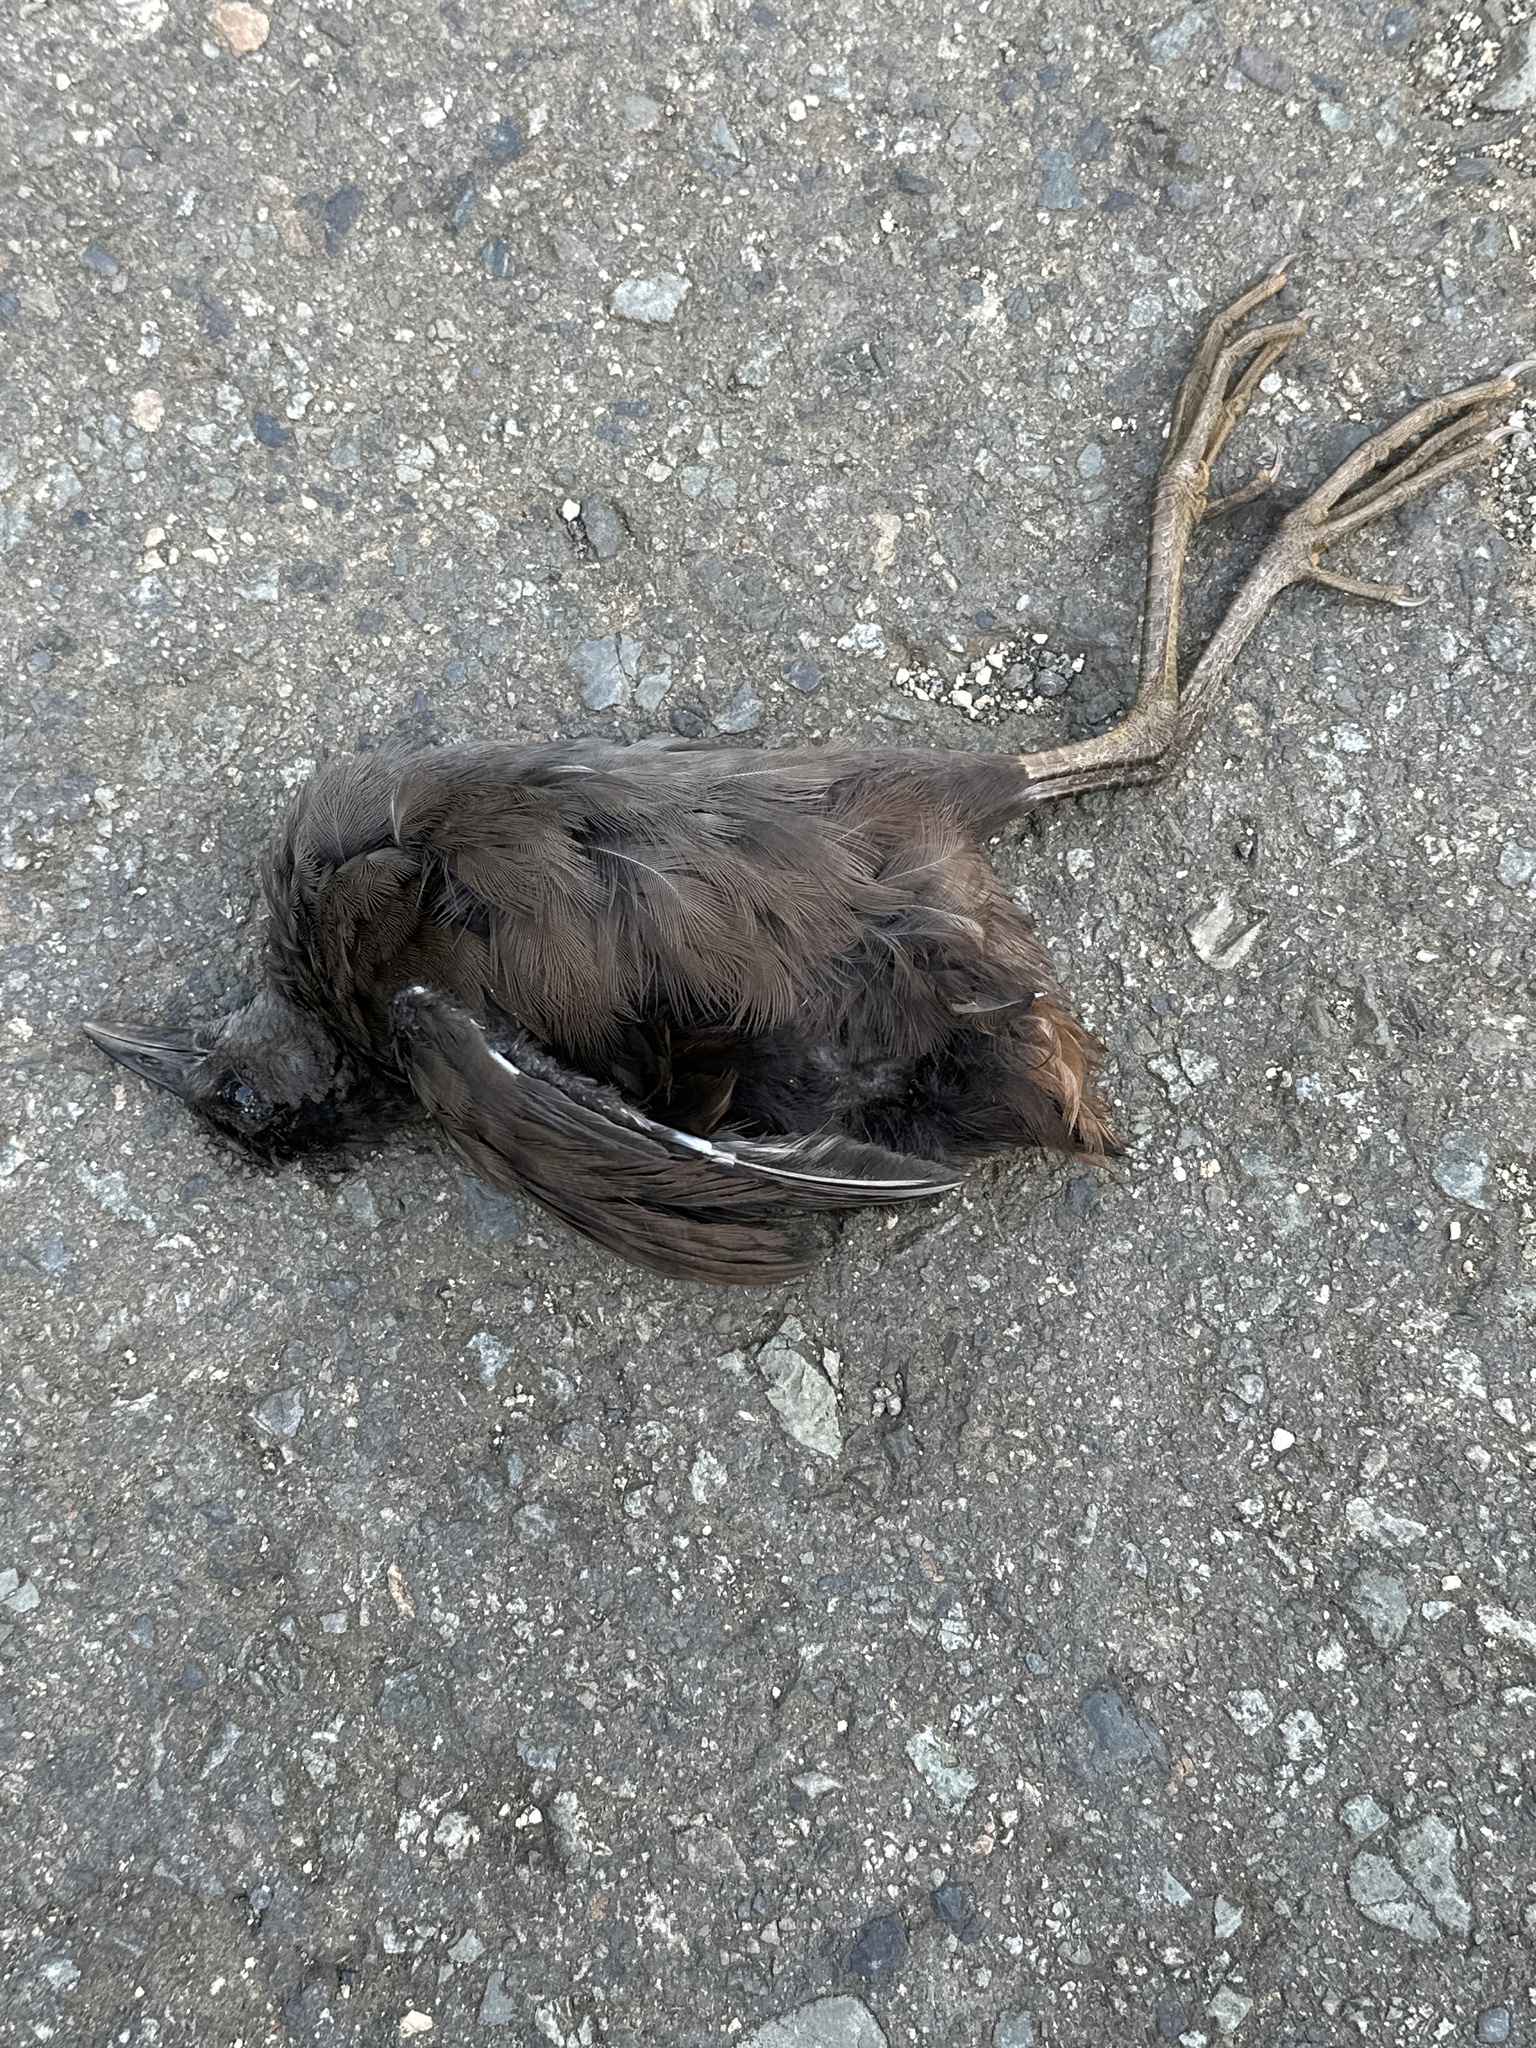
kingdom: Animalia
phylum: Chordata
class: Aves
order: Gruiformes
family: Rallidae
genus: Amaurornis
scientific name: Amaurornis olivacea
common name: Plain bush-hen
